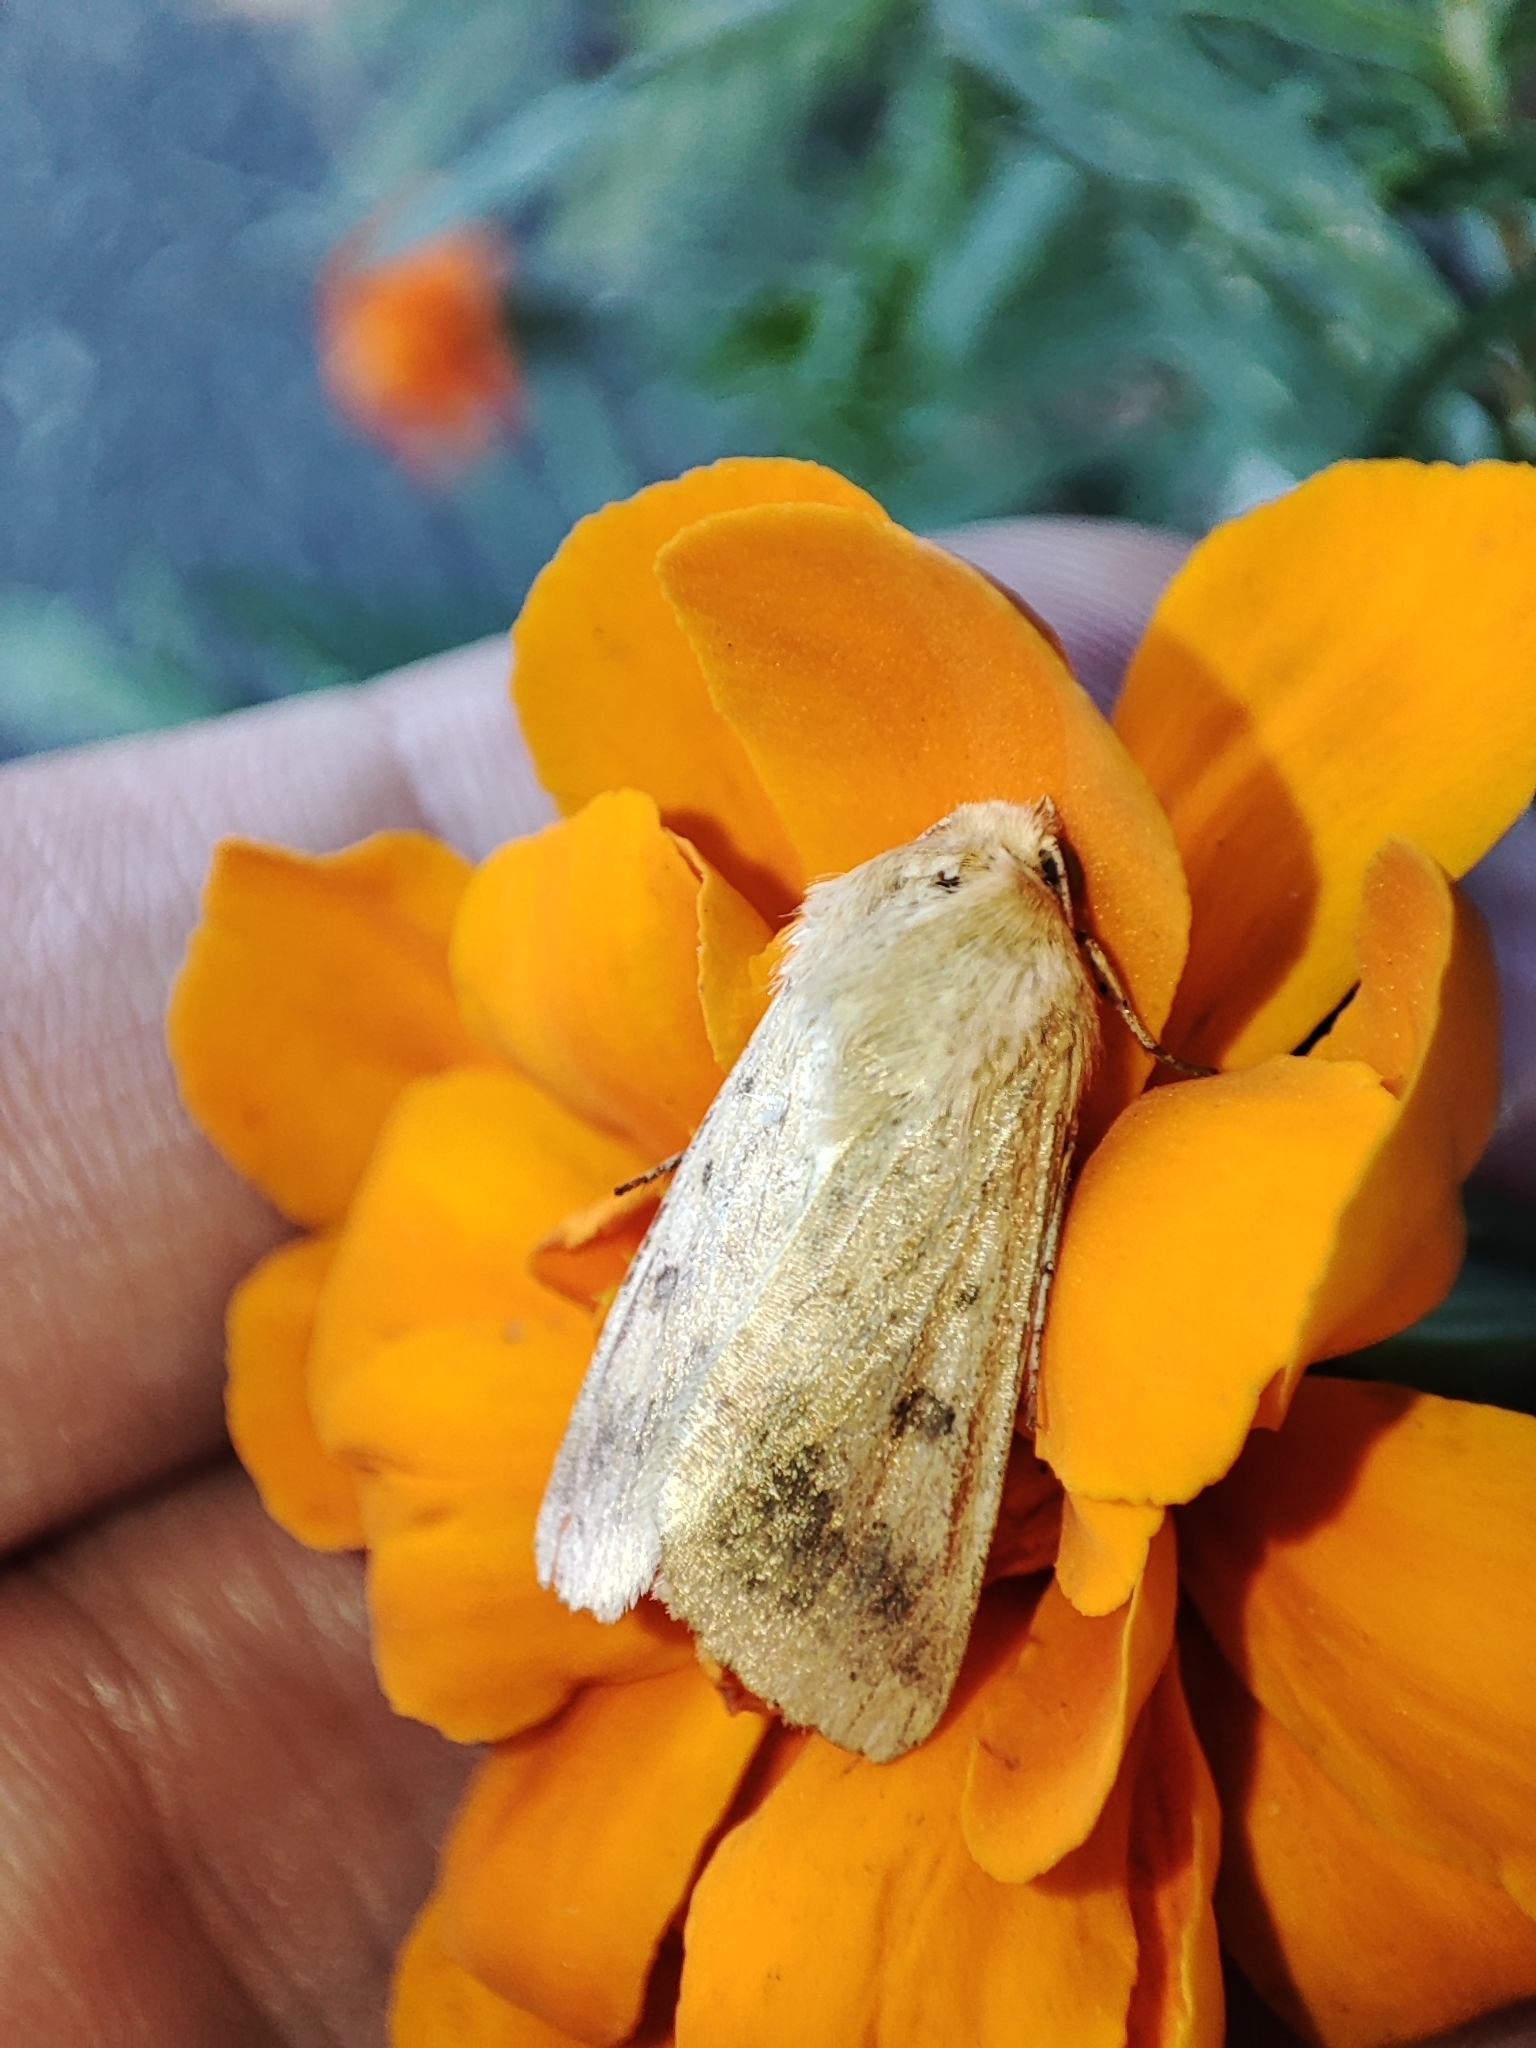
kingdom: Animalia
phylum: Arthropoda
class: Insecta
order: Lepidoptera
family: Noctuidae
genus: Helicoverpa
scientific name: Helicoverpa armigera
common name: Cotton bollworm
